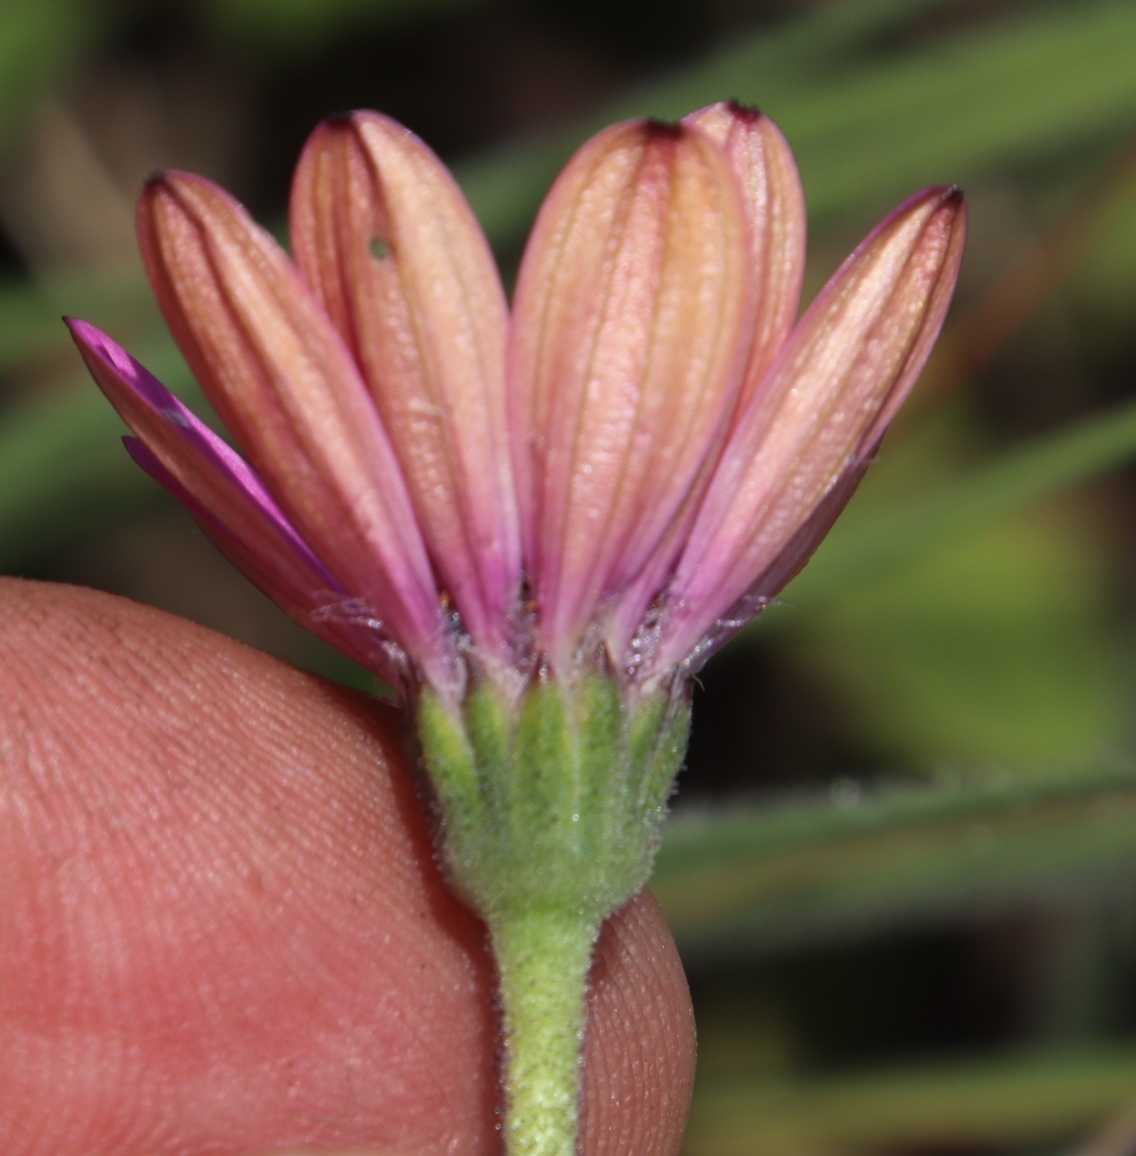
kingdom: Plantae
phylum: Tracheophyta
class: Magnoliopsida
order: Asterales
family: Asteraceae
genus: Dimorphotheca
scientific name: Dimorphotheca jucunda
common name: Osteospermum
